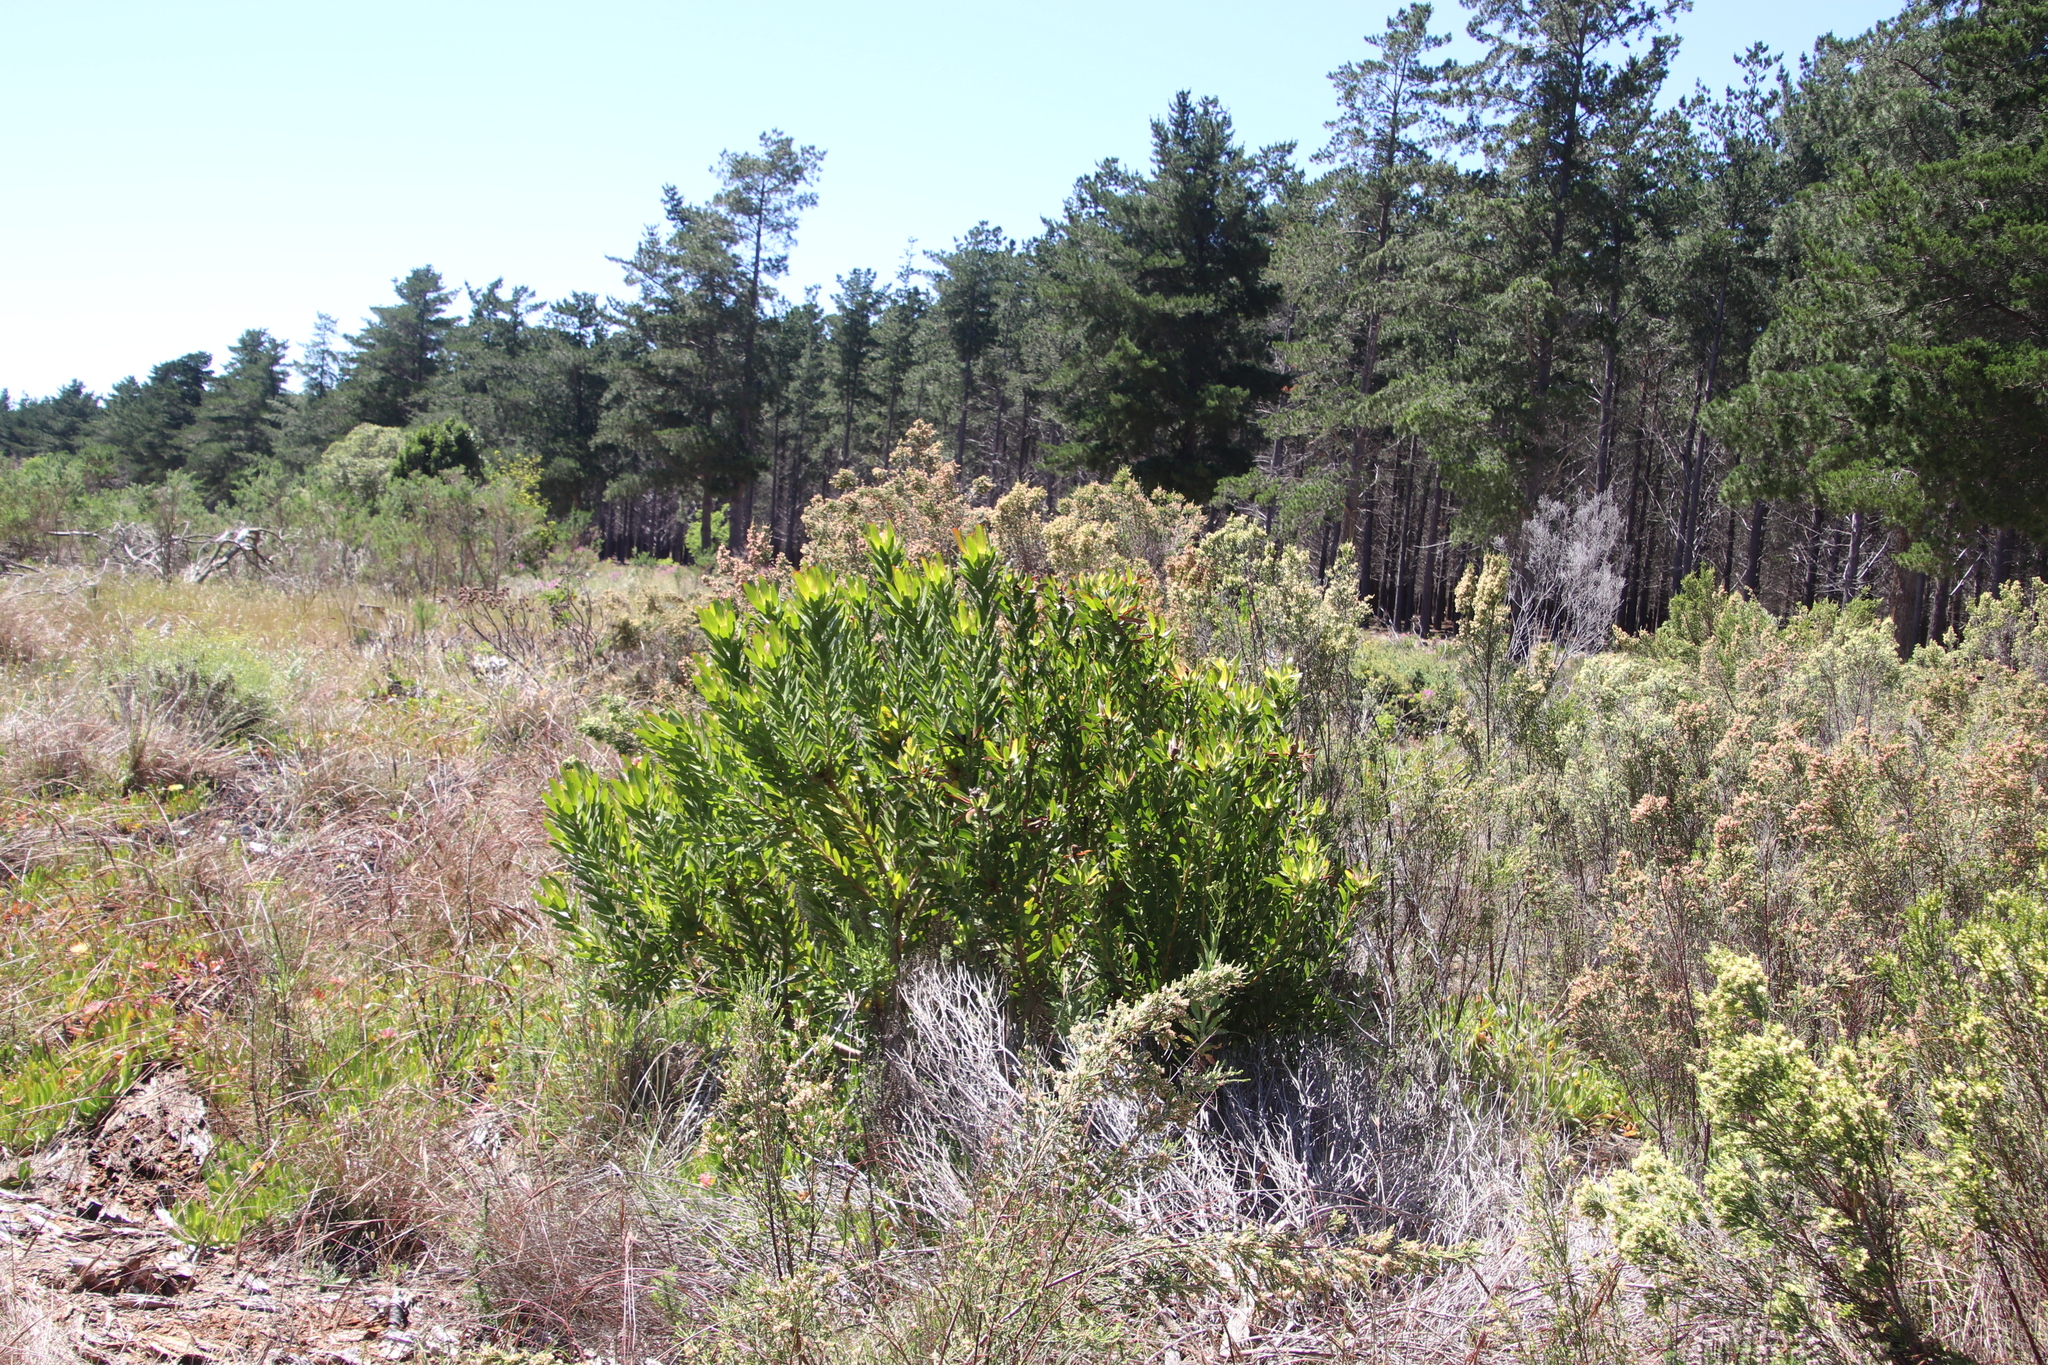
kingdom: Plantae
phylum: Tracheophyta
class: Magnoliopsida
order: Proteales
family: Proteaceae
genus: Leucadendron
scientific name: Leucadendron laureolum
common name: Golden sunshinebush
